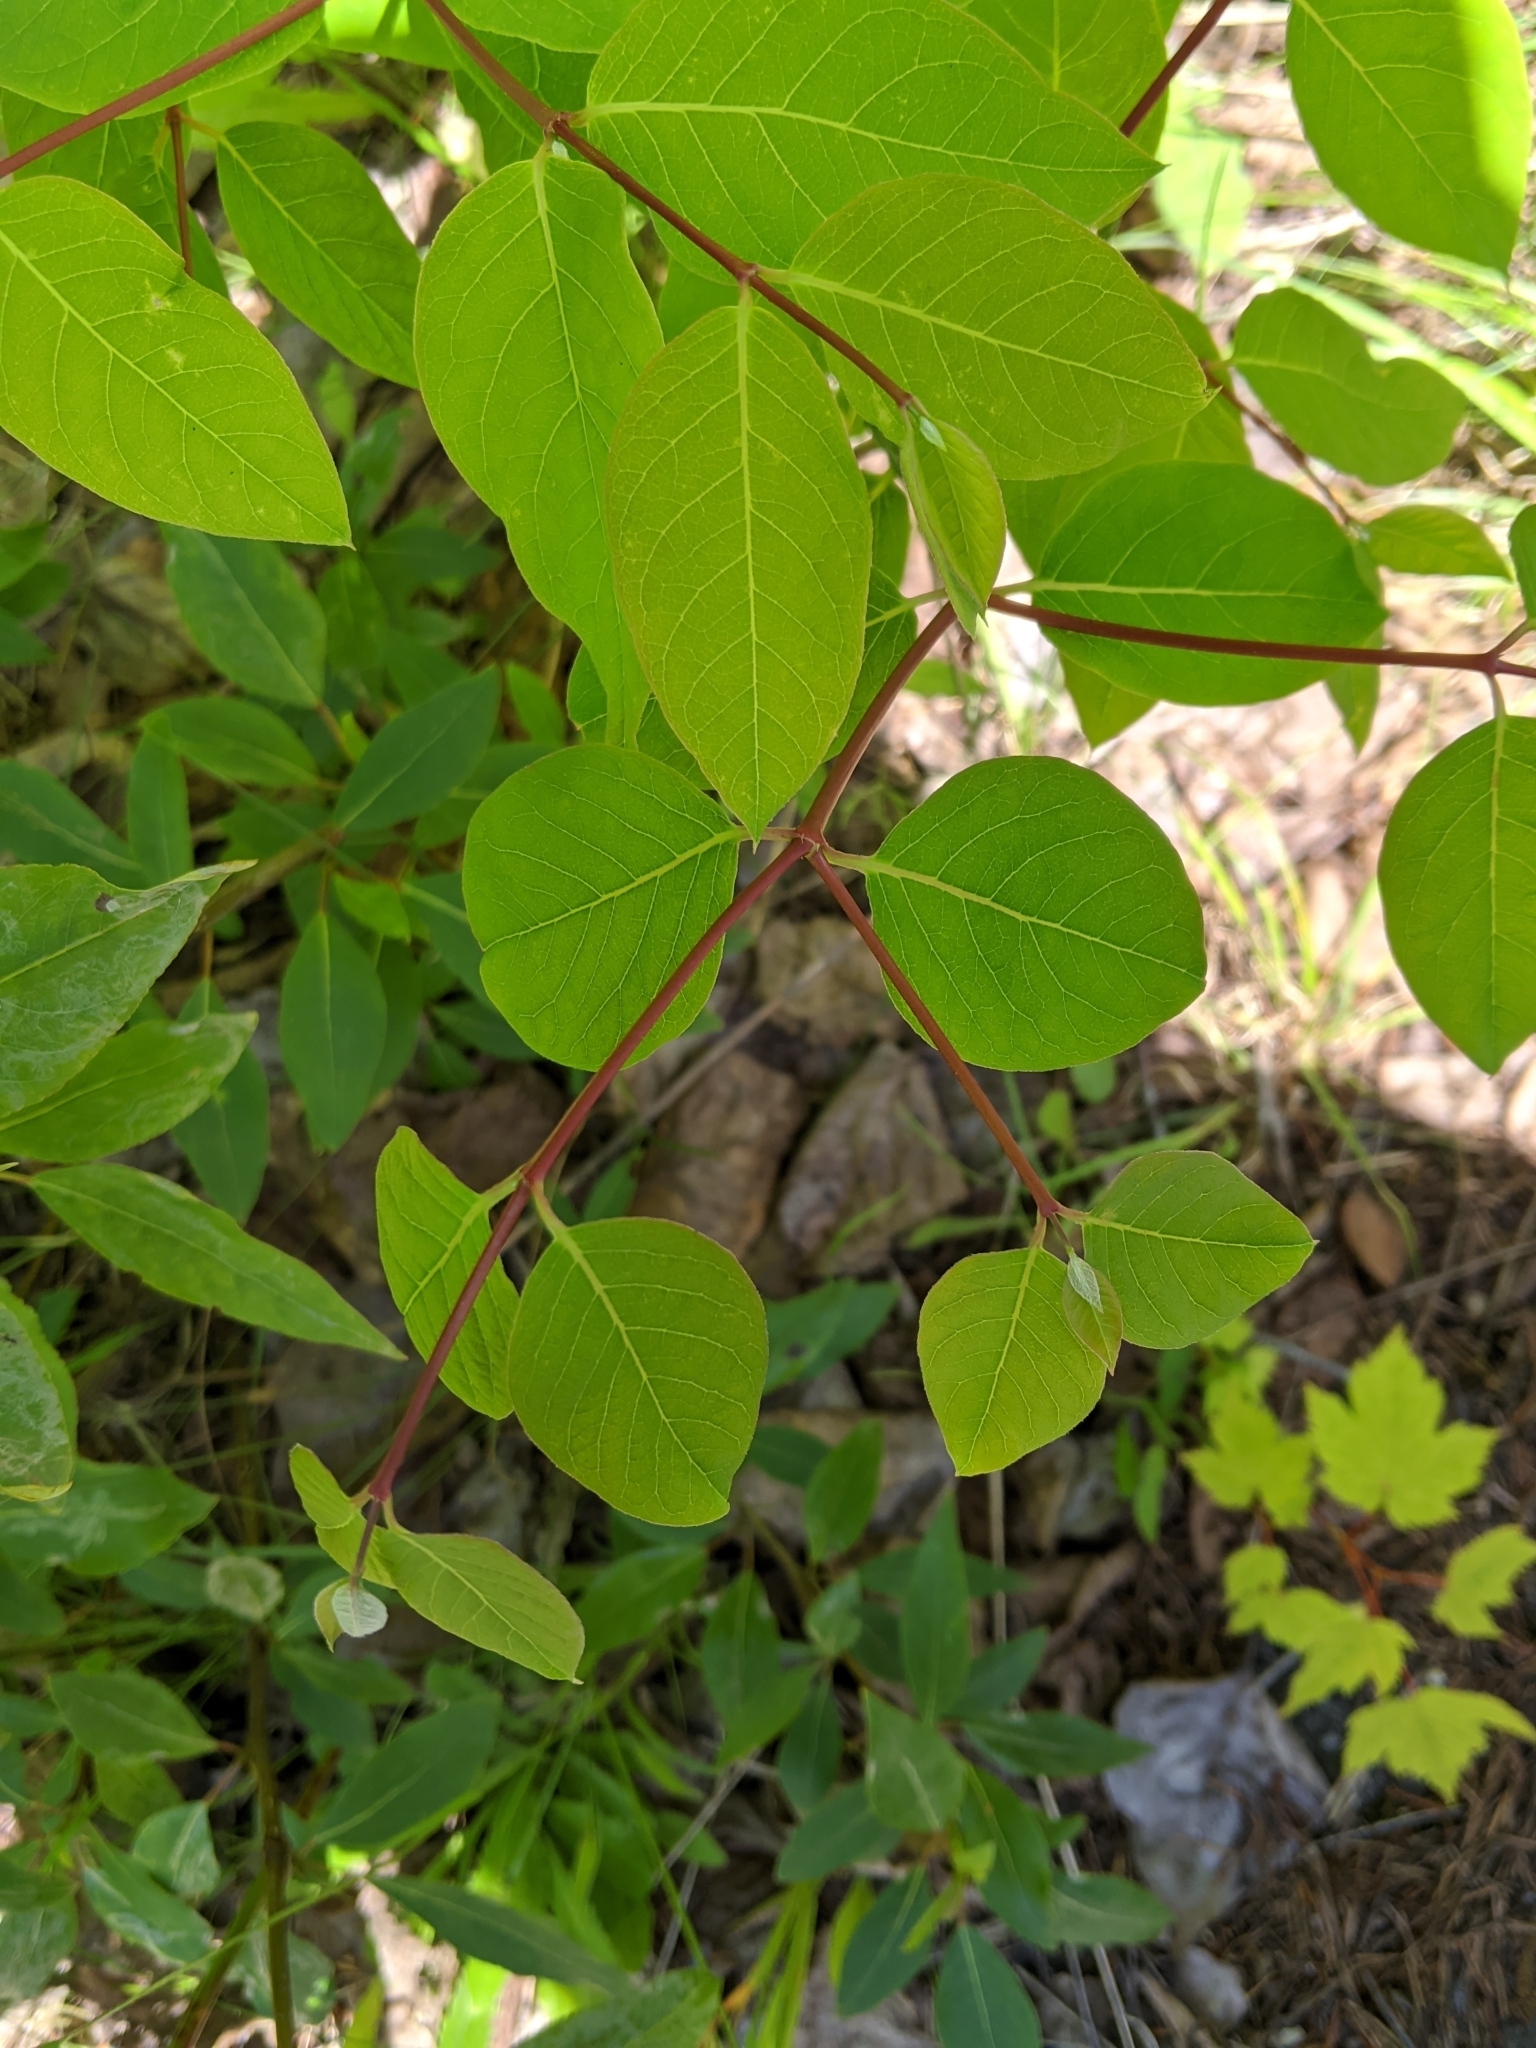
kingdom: Plantae
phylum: Tracheophyta
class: Magnoliopsida
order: Gentianales
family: Apocynaceae
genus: Apocynum
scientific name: Apocynum androsaemifolium
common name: Spreading dogbane
